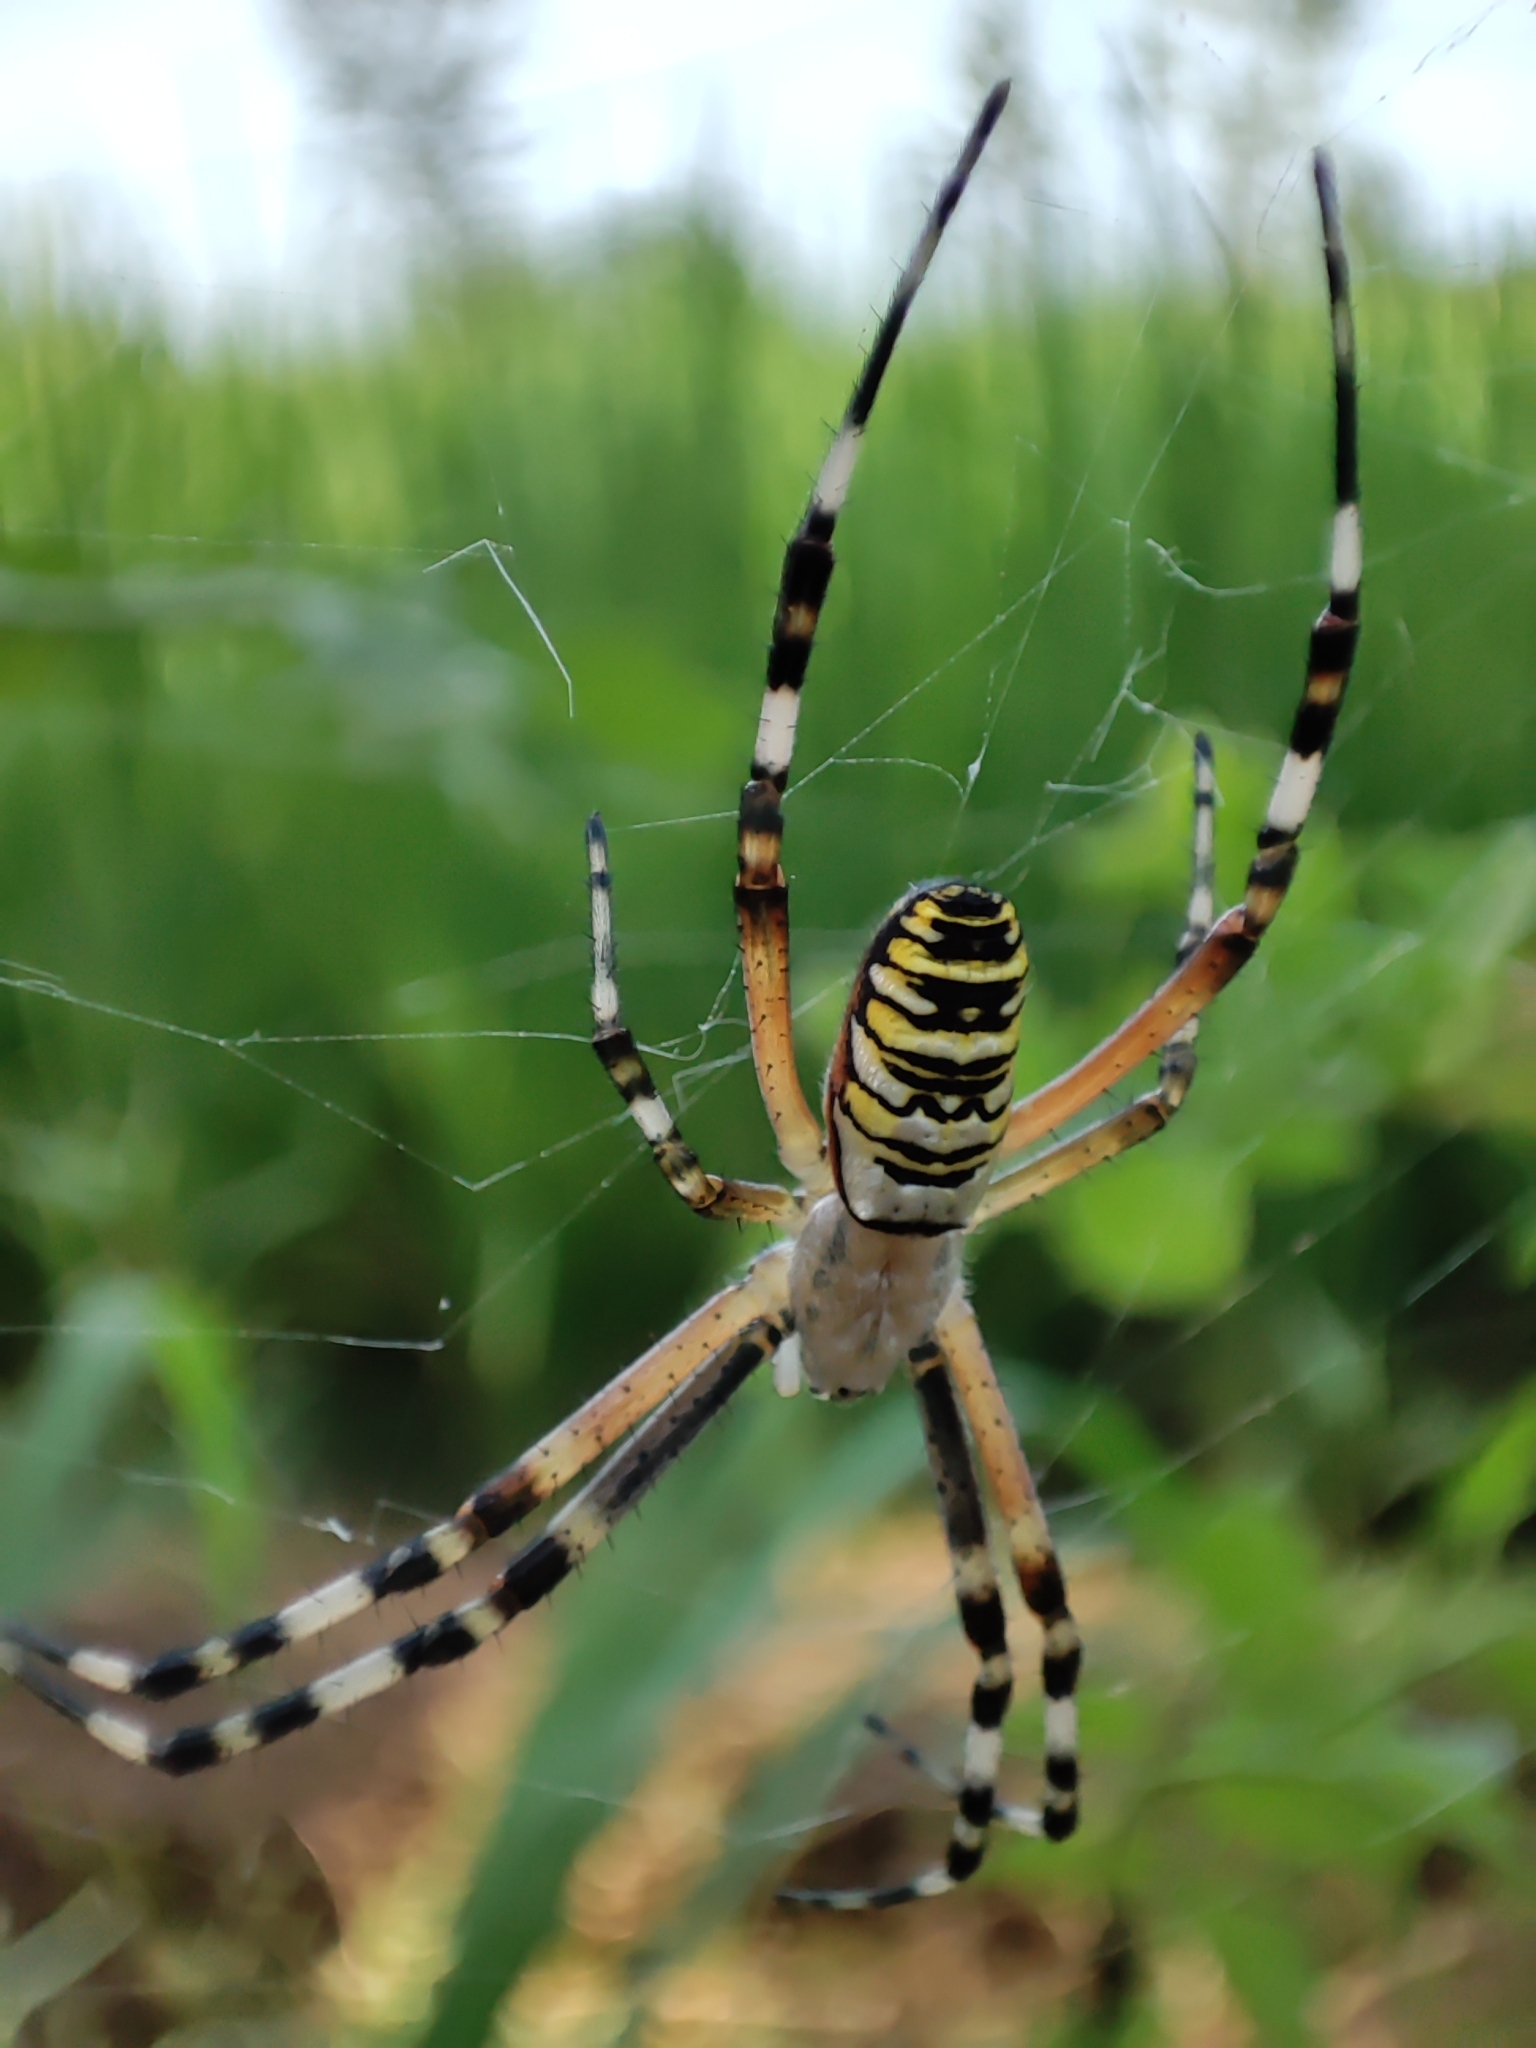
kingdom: Animalia
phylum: Arthropoda
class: Arachnida
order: Araneae
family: Araneidae
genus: Argiope
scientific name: Argiope bruennichi
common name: Wasp spider
